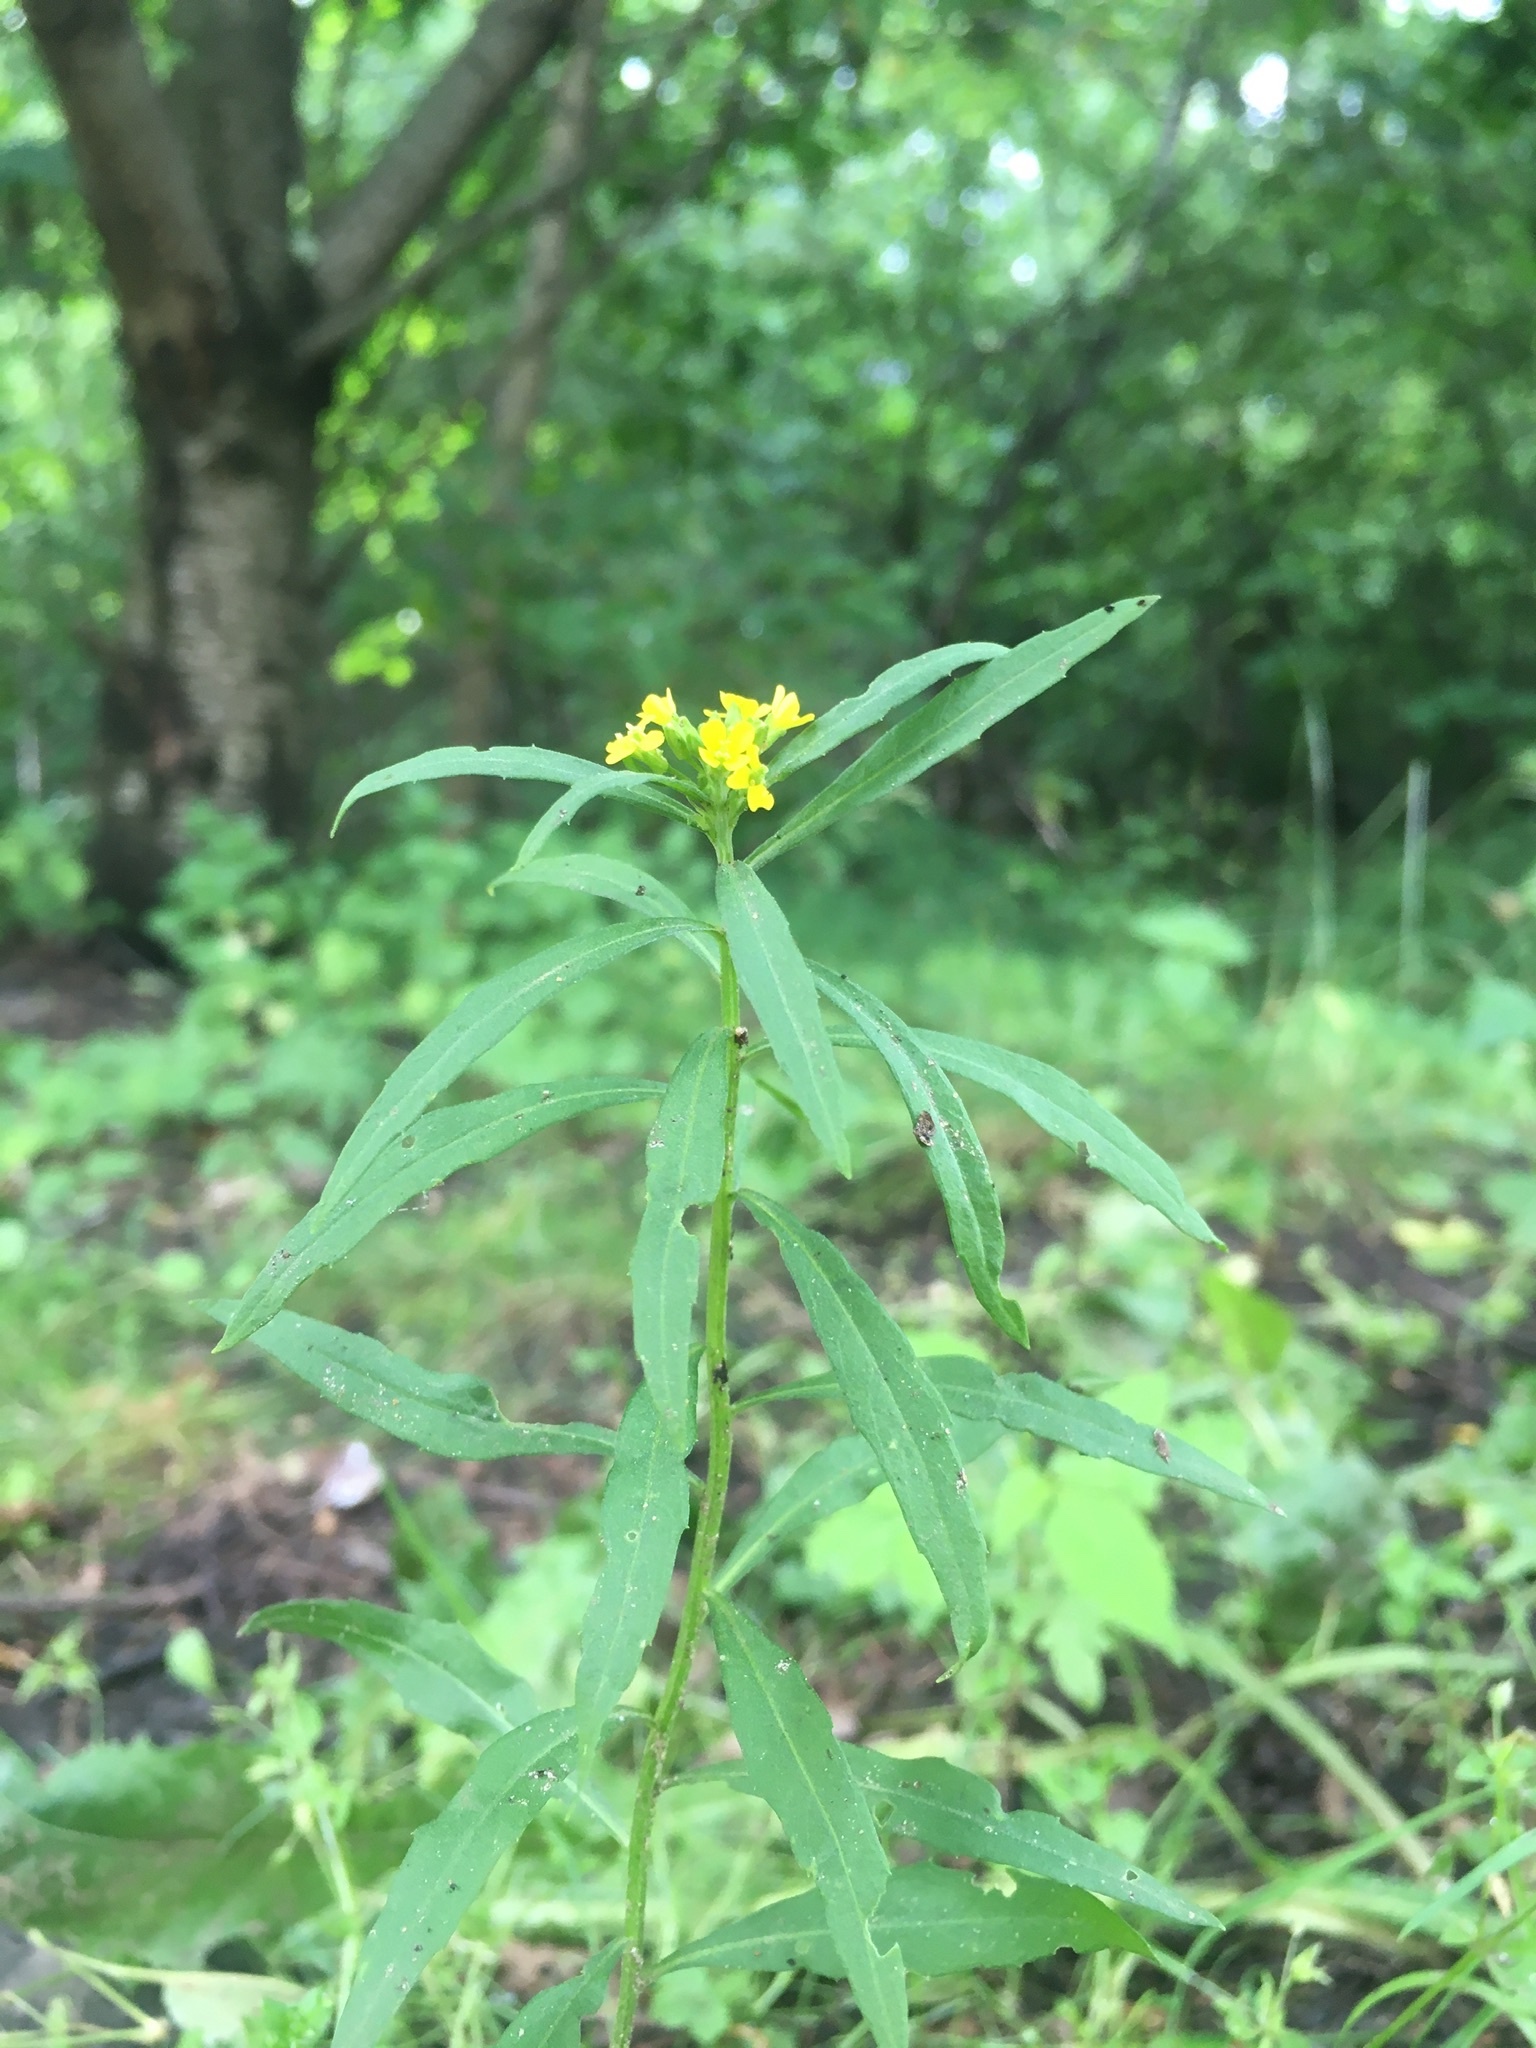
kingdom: Plantae
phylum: Tracheophyta
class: Magnoliopsida
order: Brassicales
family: Brassicaceae
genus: Erysimum
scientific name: Erysimum cheiranthoides
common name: Treacle mustard
